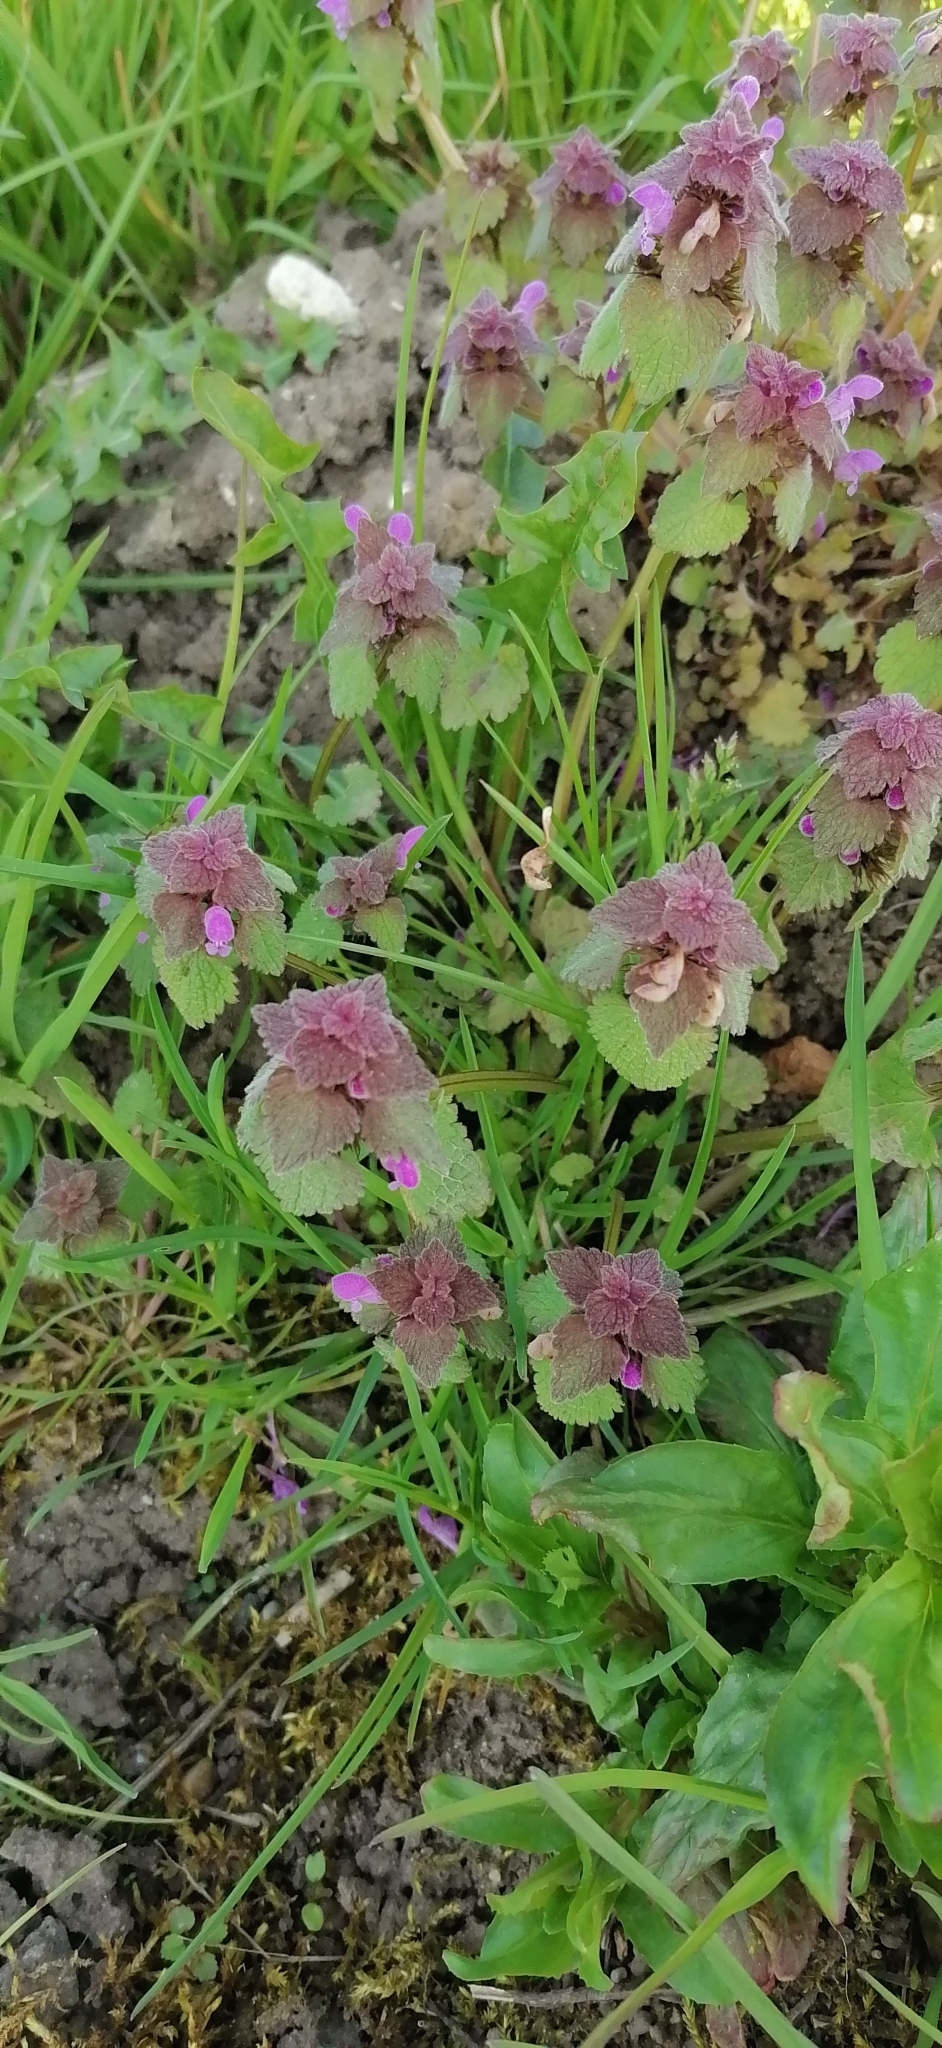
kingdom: Plantae
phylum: Tracheophyta
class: Magnoliopsida
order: Lamiales
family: Lamiaceae
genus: Lamium
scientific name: Lamium purpureum
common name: Red dead-nettle
